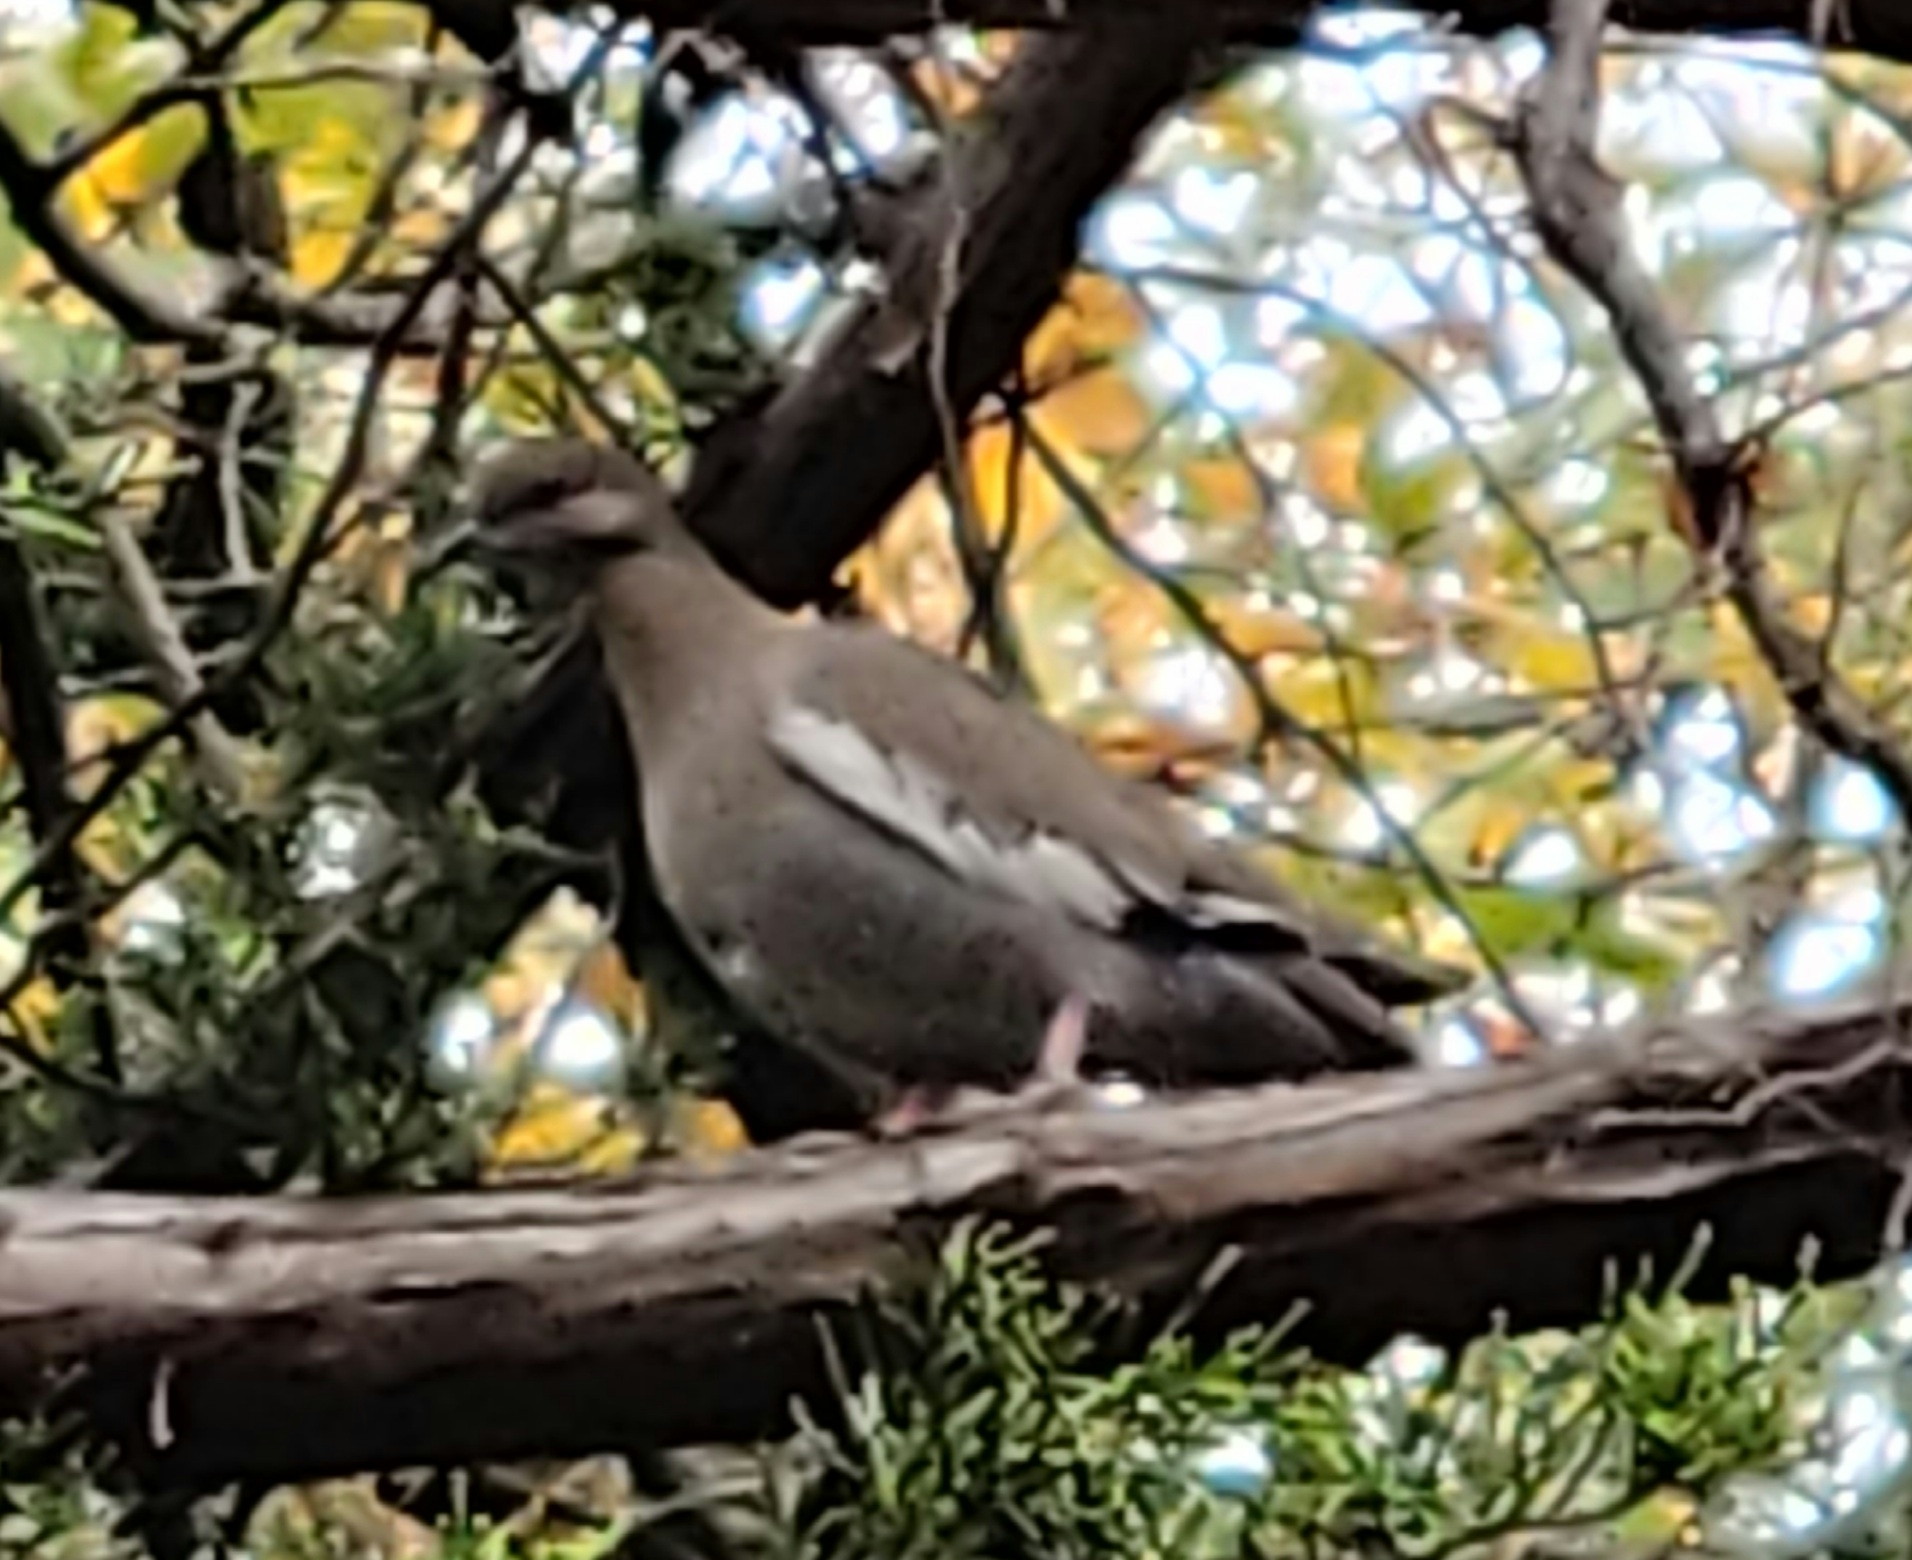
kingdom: Animalia
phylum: Chordata
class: Aves
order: Columbiformes
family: Columbidae
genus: Zenaida
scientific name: Zenaida asiatica
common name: White-winged dove
